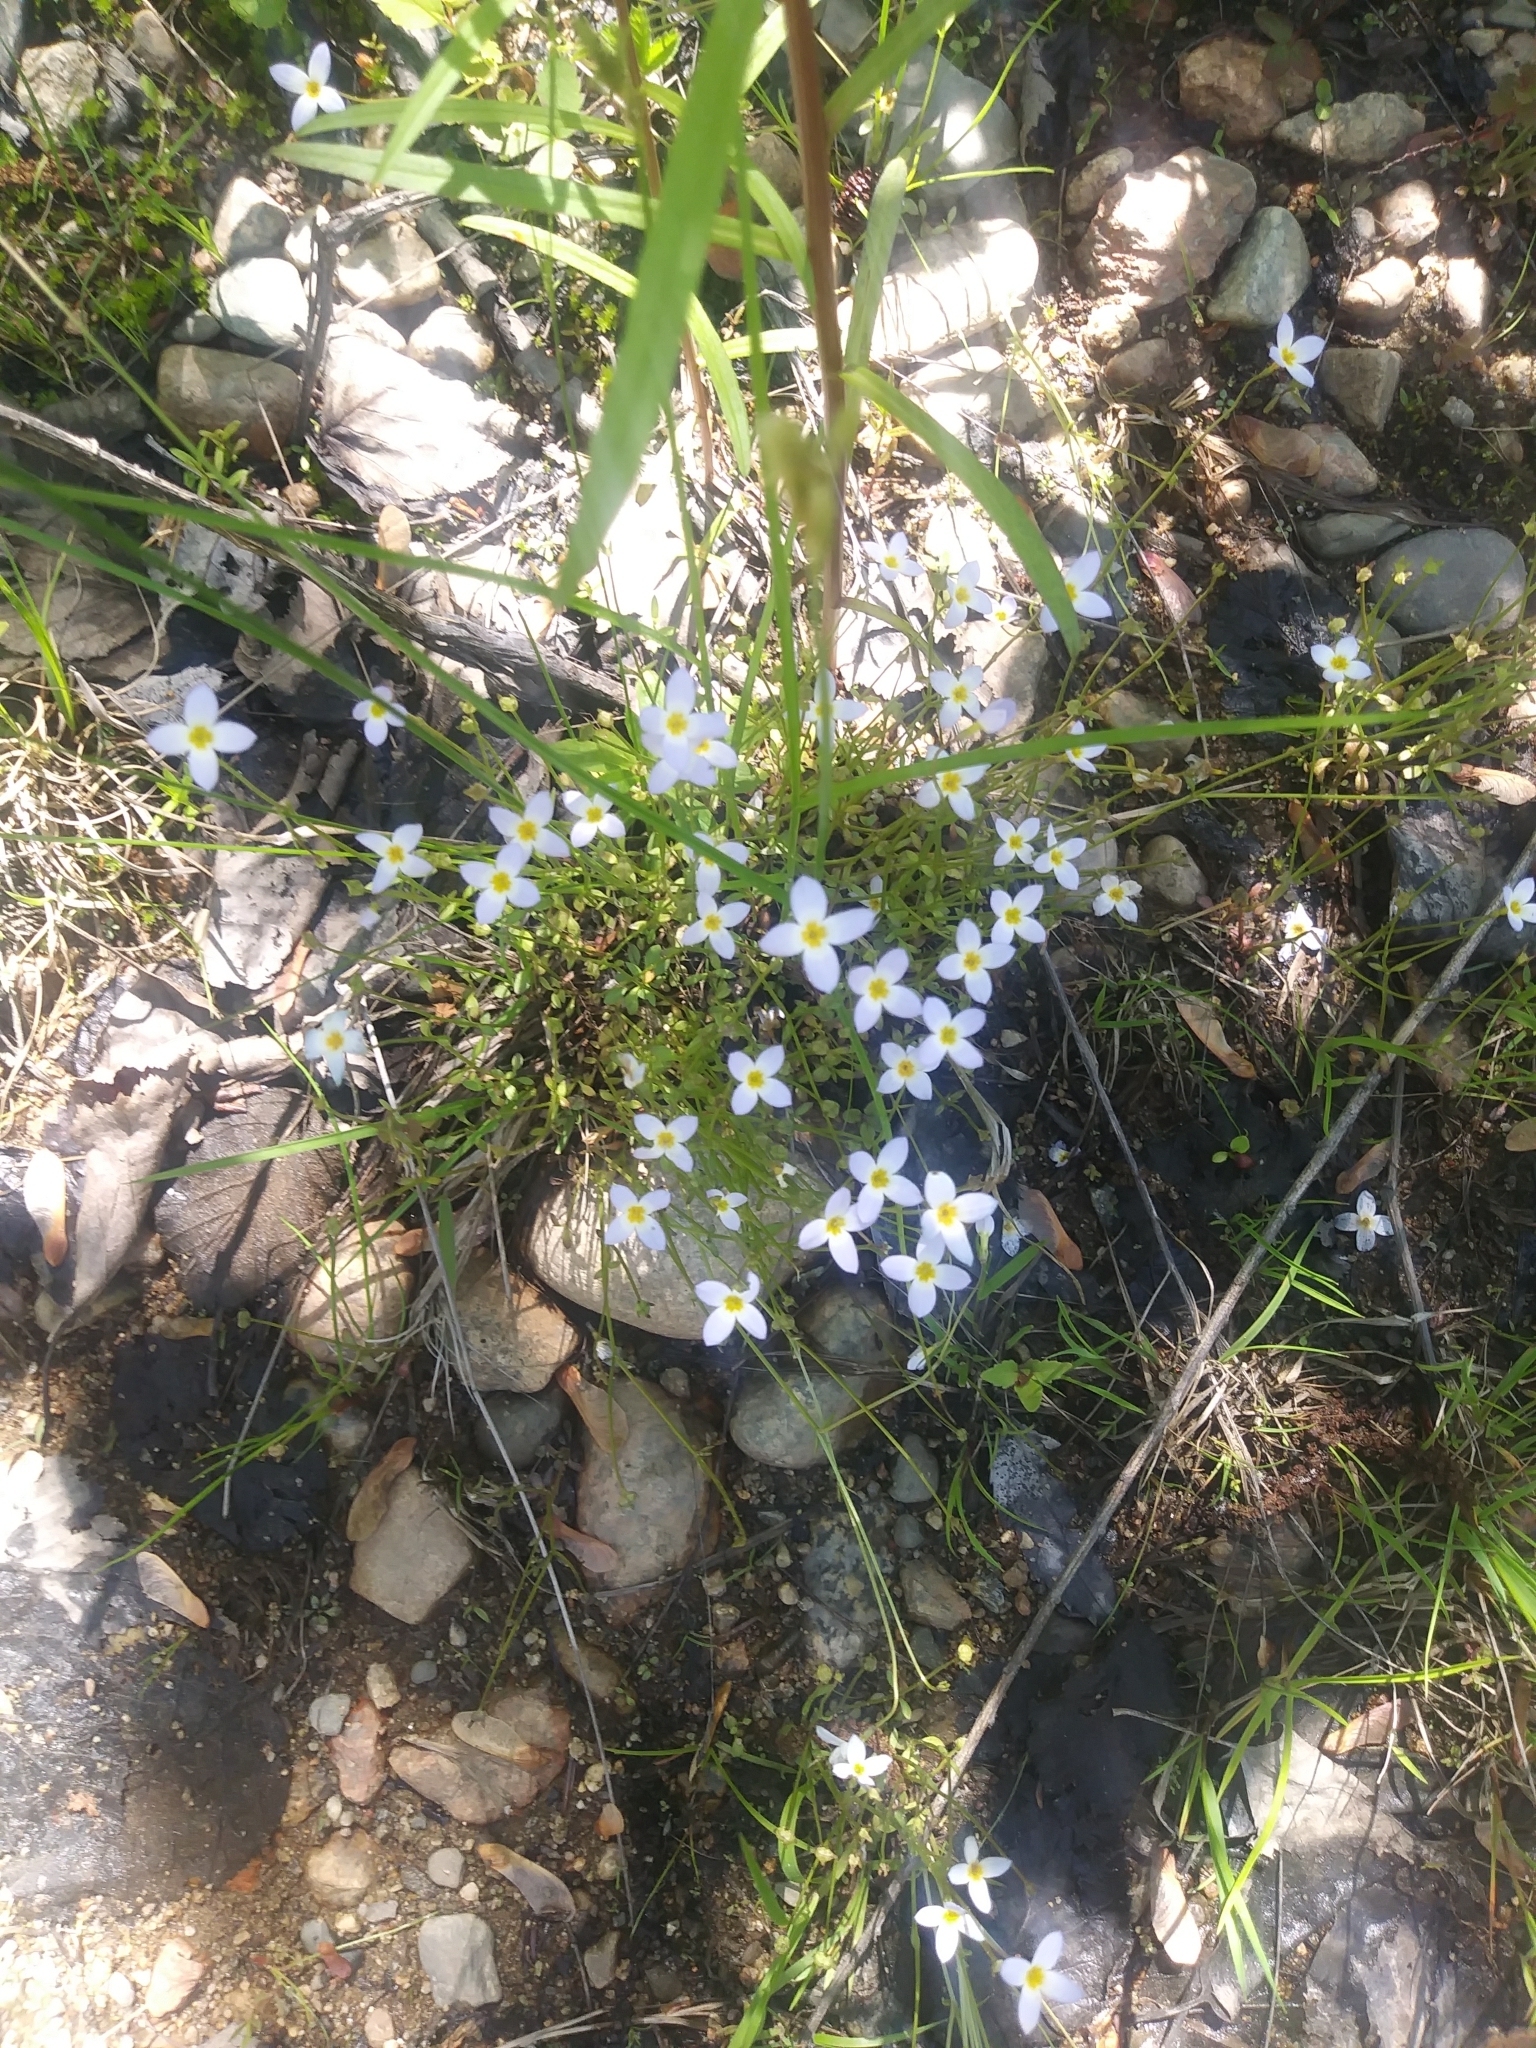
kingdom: Plantae
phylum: Tracheophyta
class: Magnoliopsida
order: Gentianales
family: Rubiaceae
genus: Houstonia
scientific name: Houstonia caerulea
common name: Bluets
